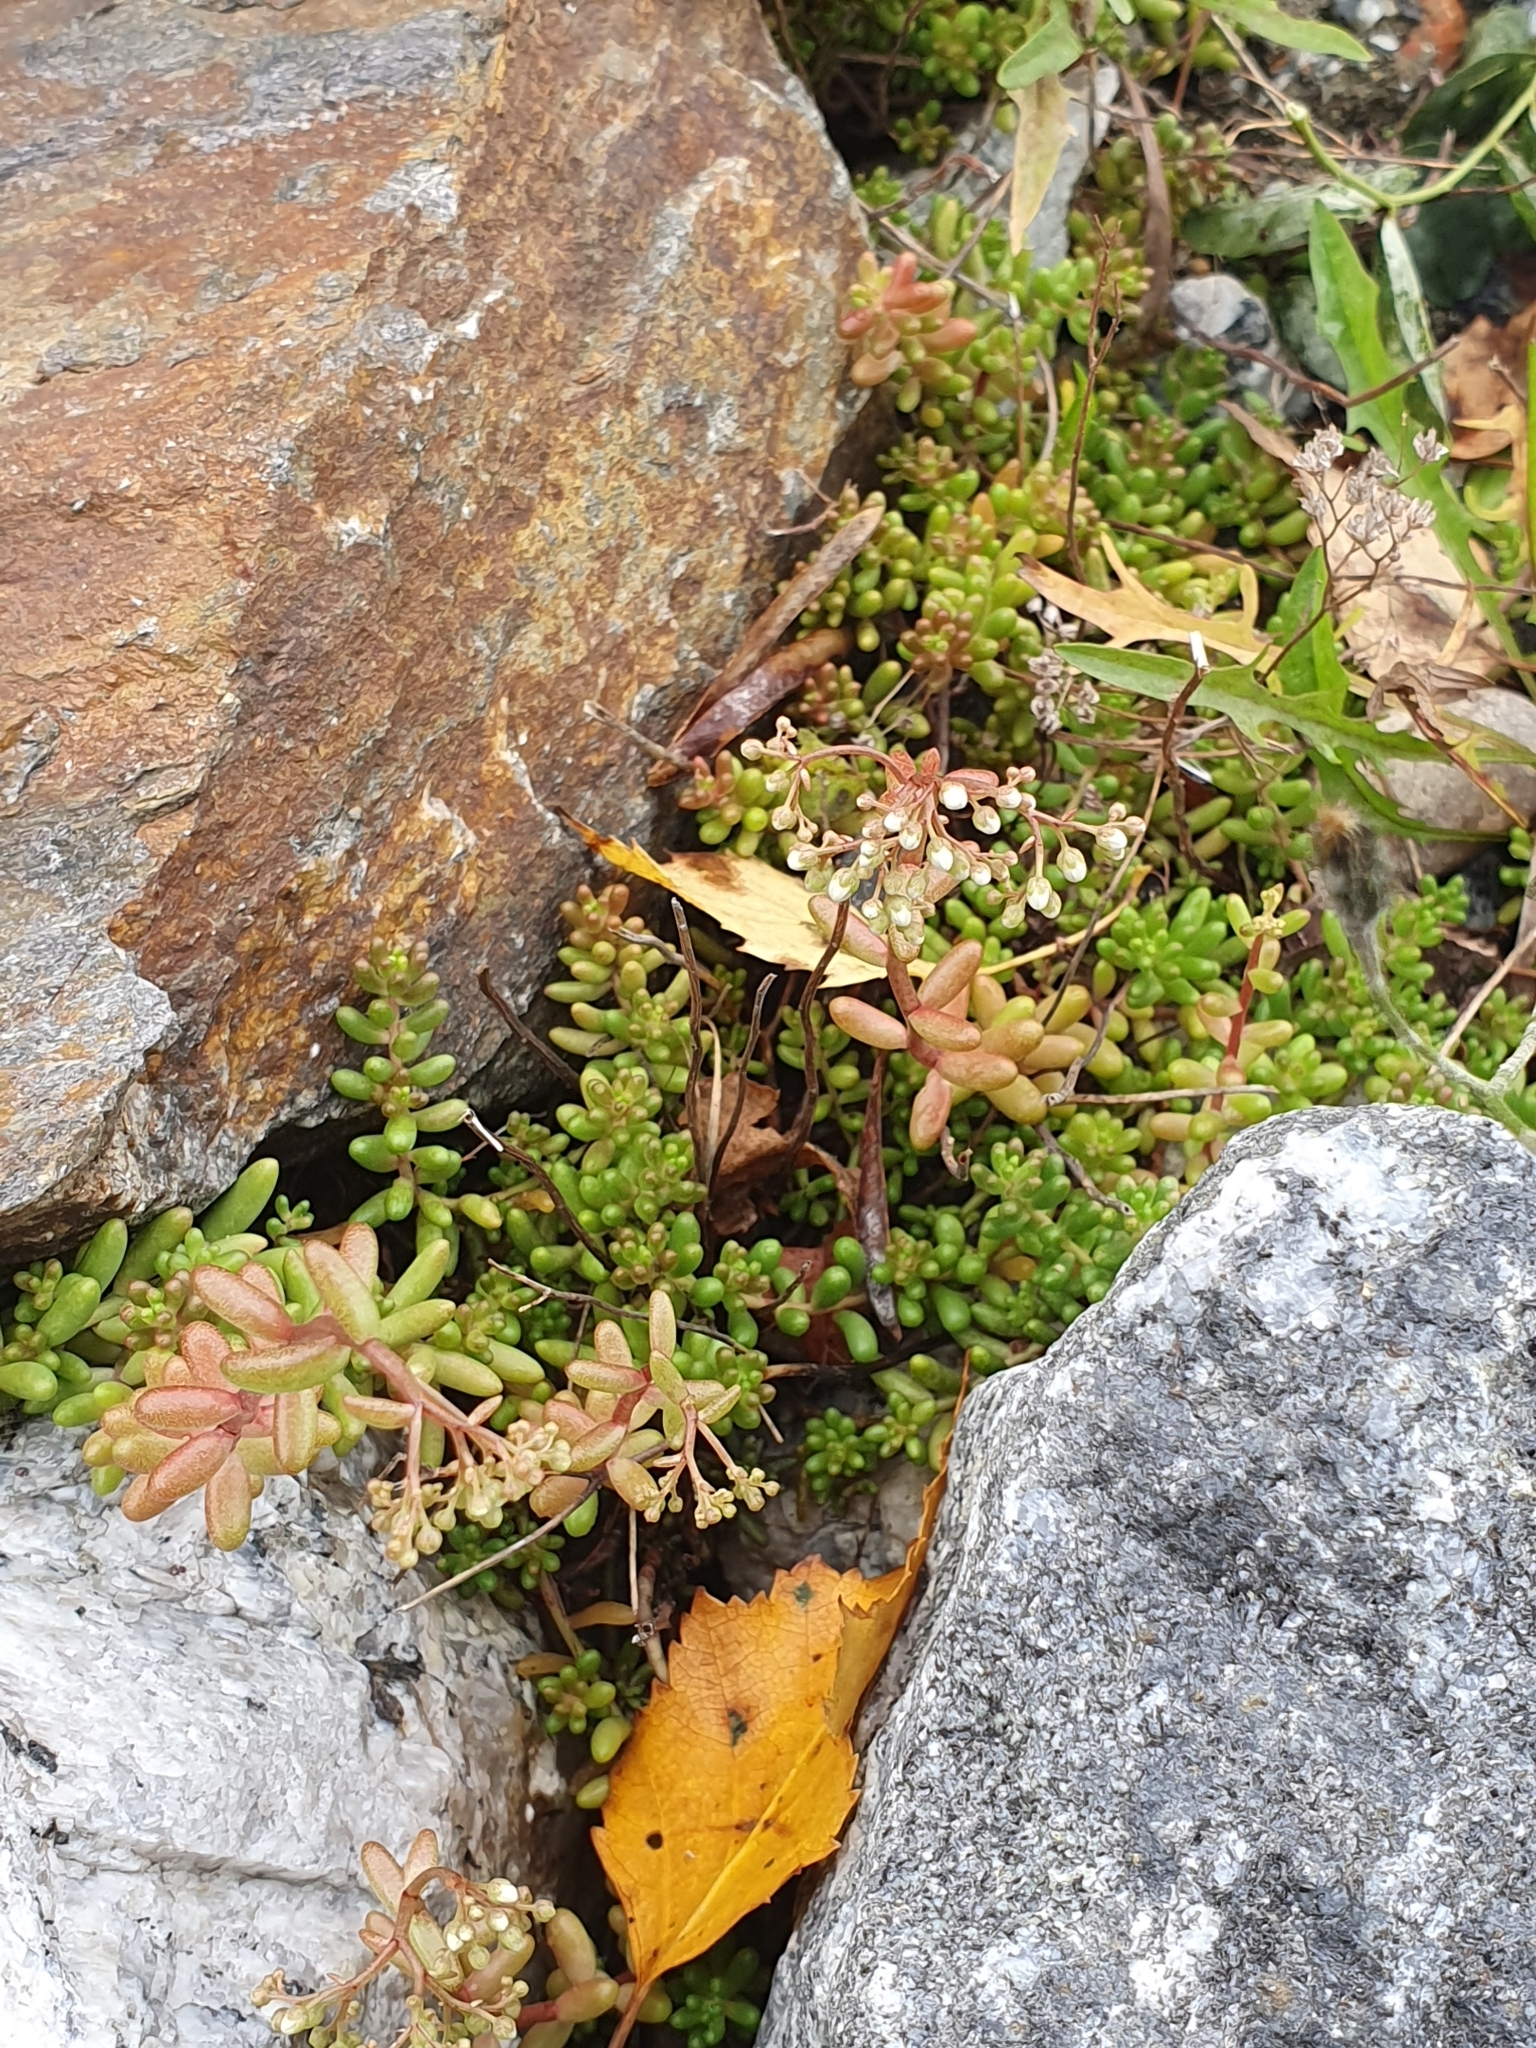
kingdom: Plantae
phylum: Tracheophyta
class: Magnoliopsida
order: Saxifragales
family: Crassulaceae
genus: Sedum
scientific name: Sedum album
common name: White stonecrop
